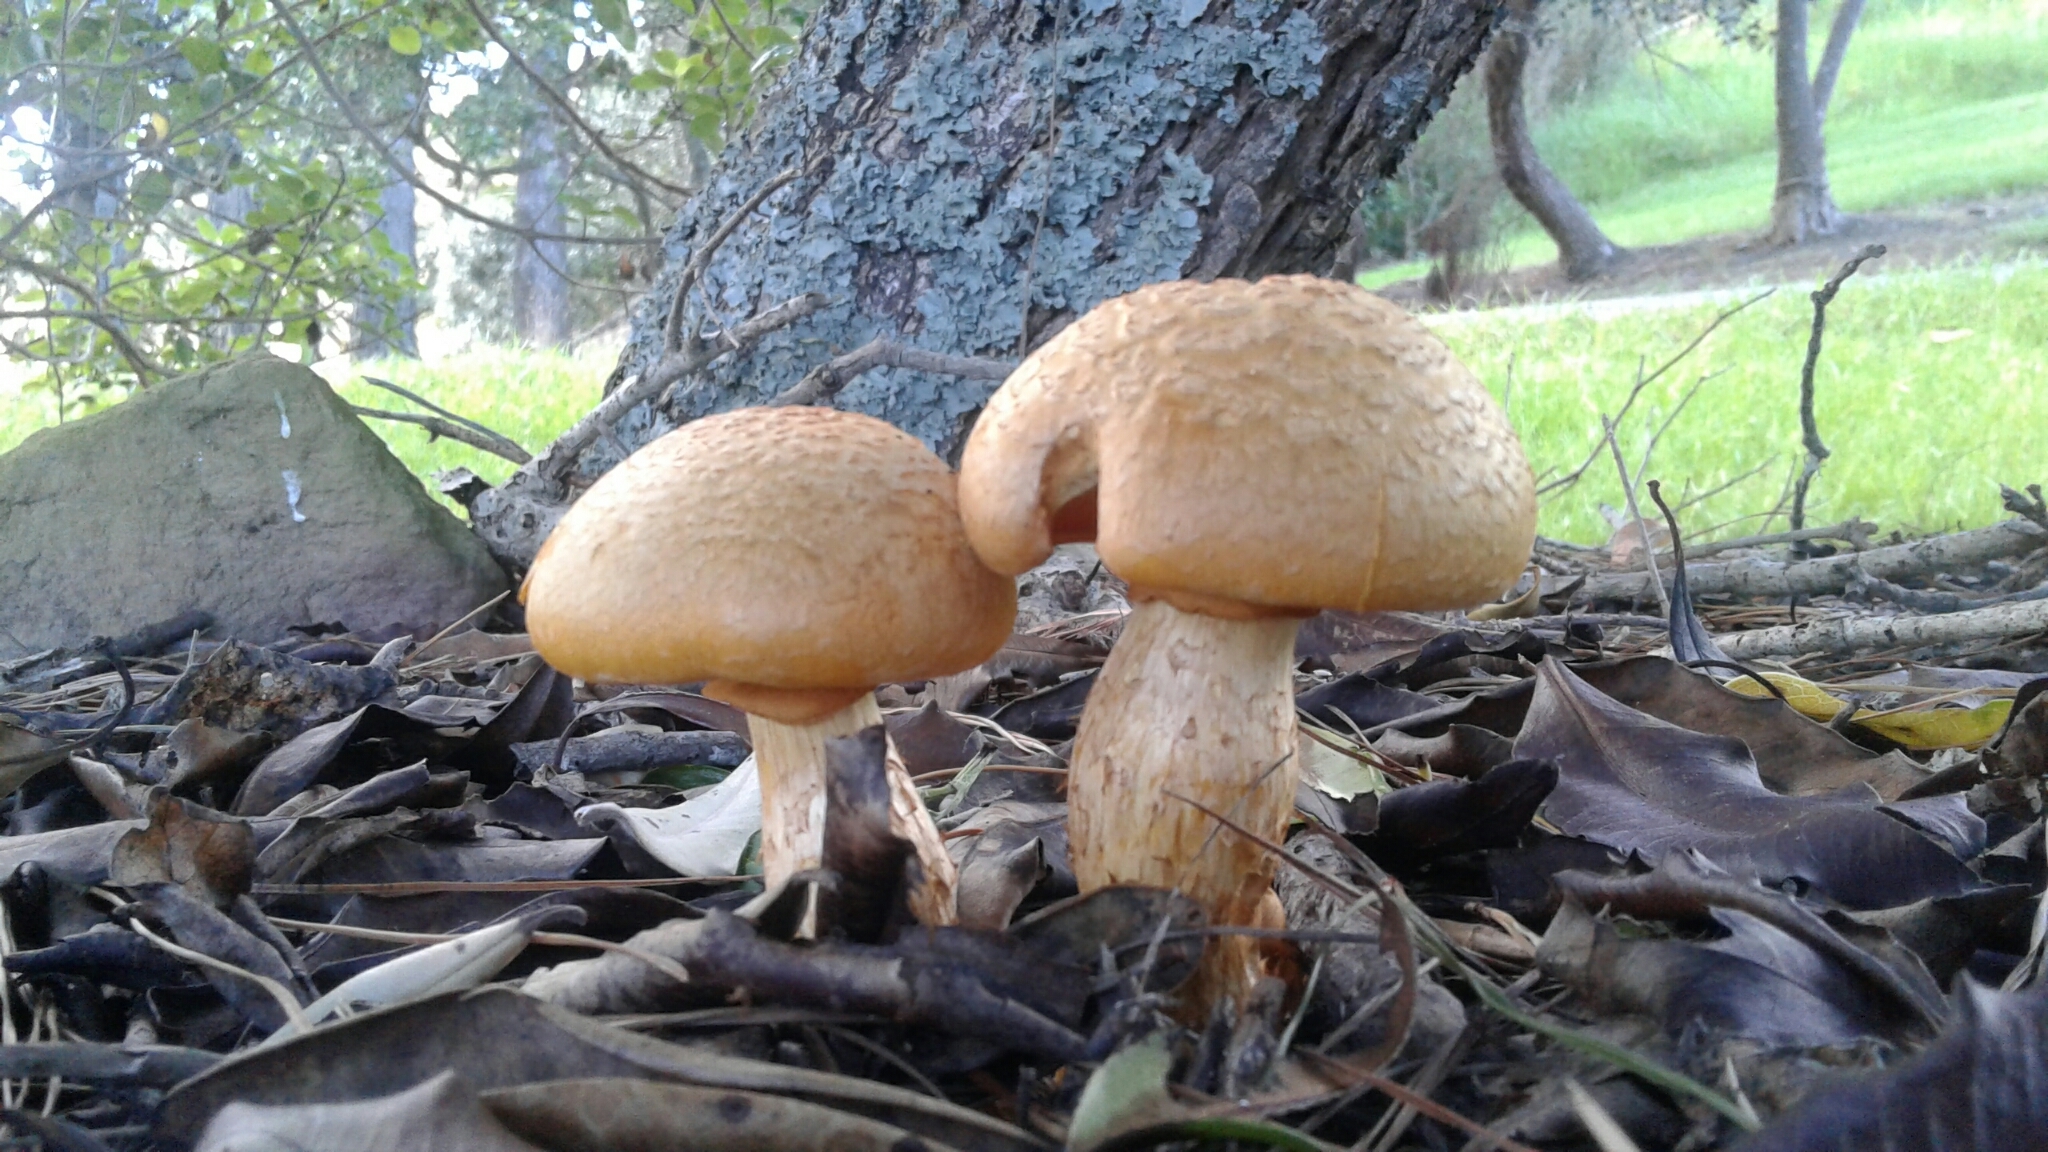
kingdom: Fungi
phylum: Basidiomycota
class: Agaricomycetes
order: Agaricales
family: Hymenogastraceae
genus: Gymnopilus
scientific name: Gymnopilus junonius
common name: Spectacular rustgill
